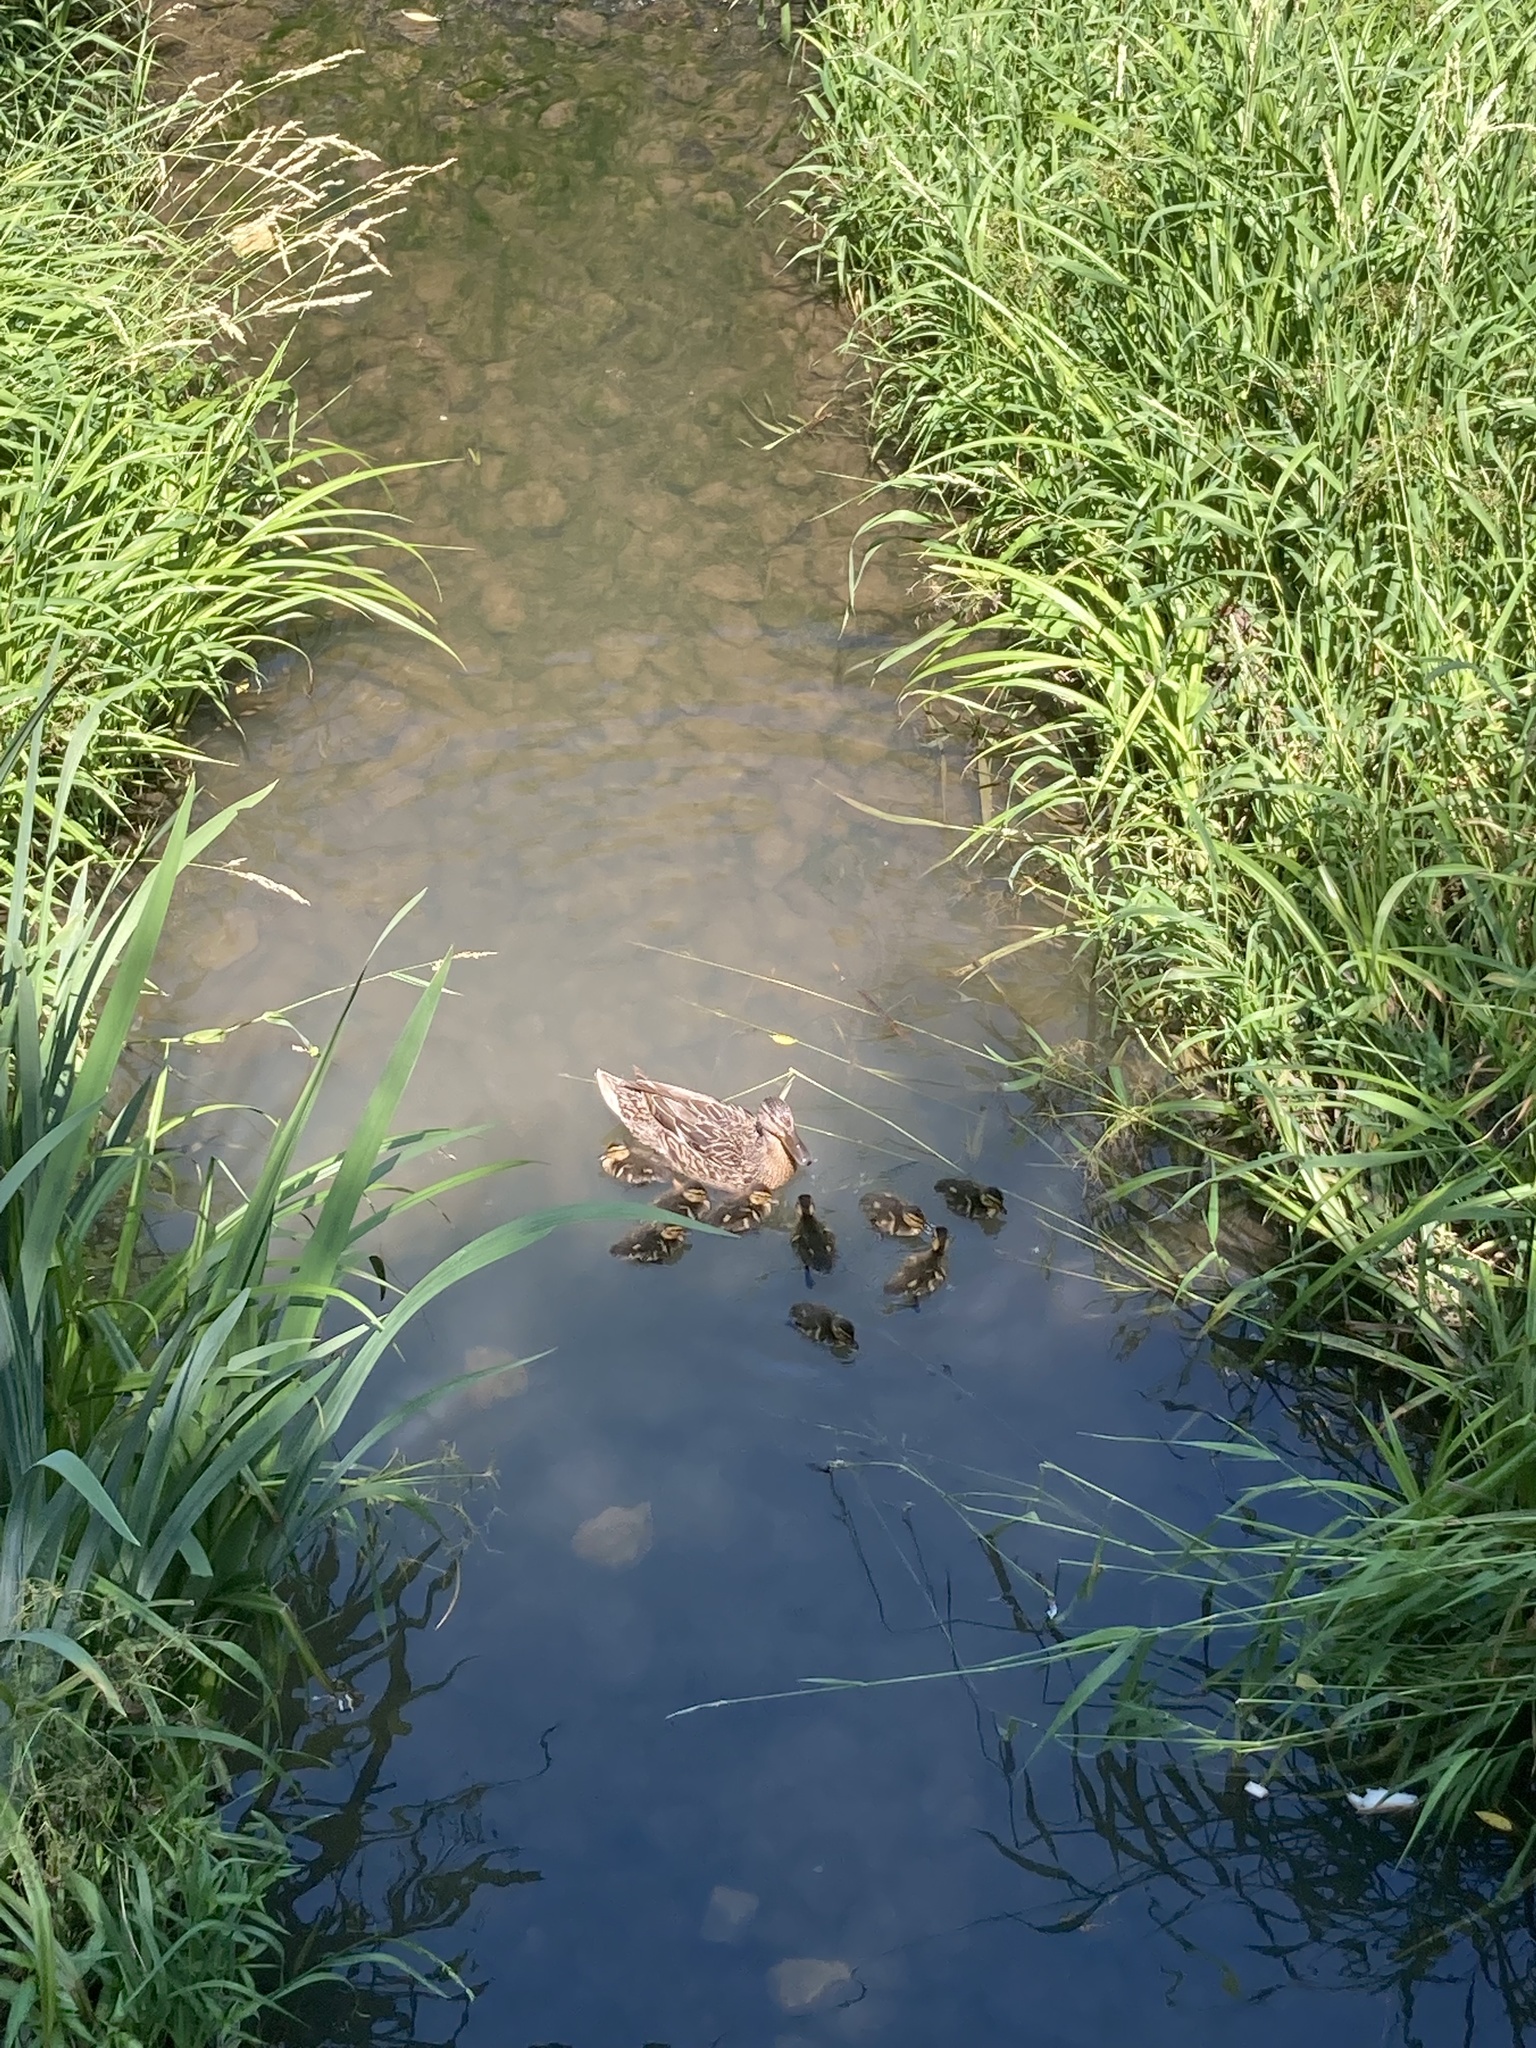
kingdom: Animalia
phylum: Chordata
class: Aves
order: Anseriformes
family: Anatidae
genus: Anas
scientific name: Anas platyrhynchos
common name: Mallard
